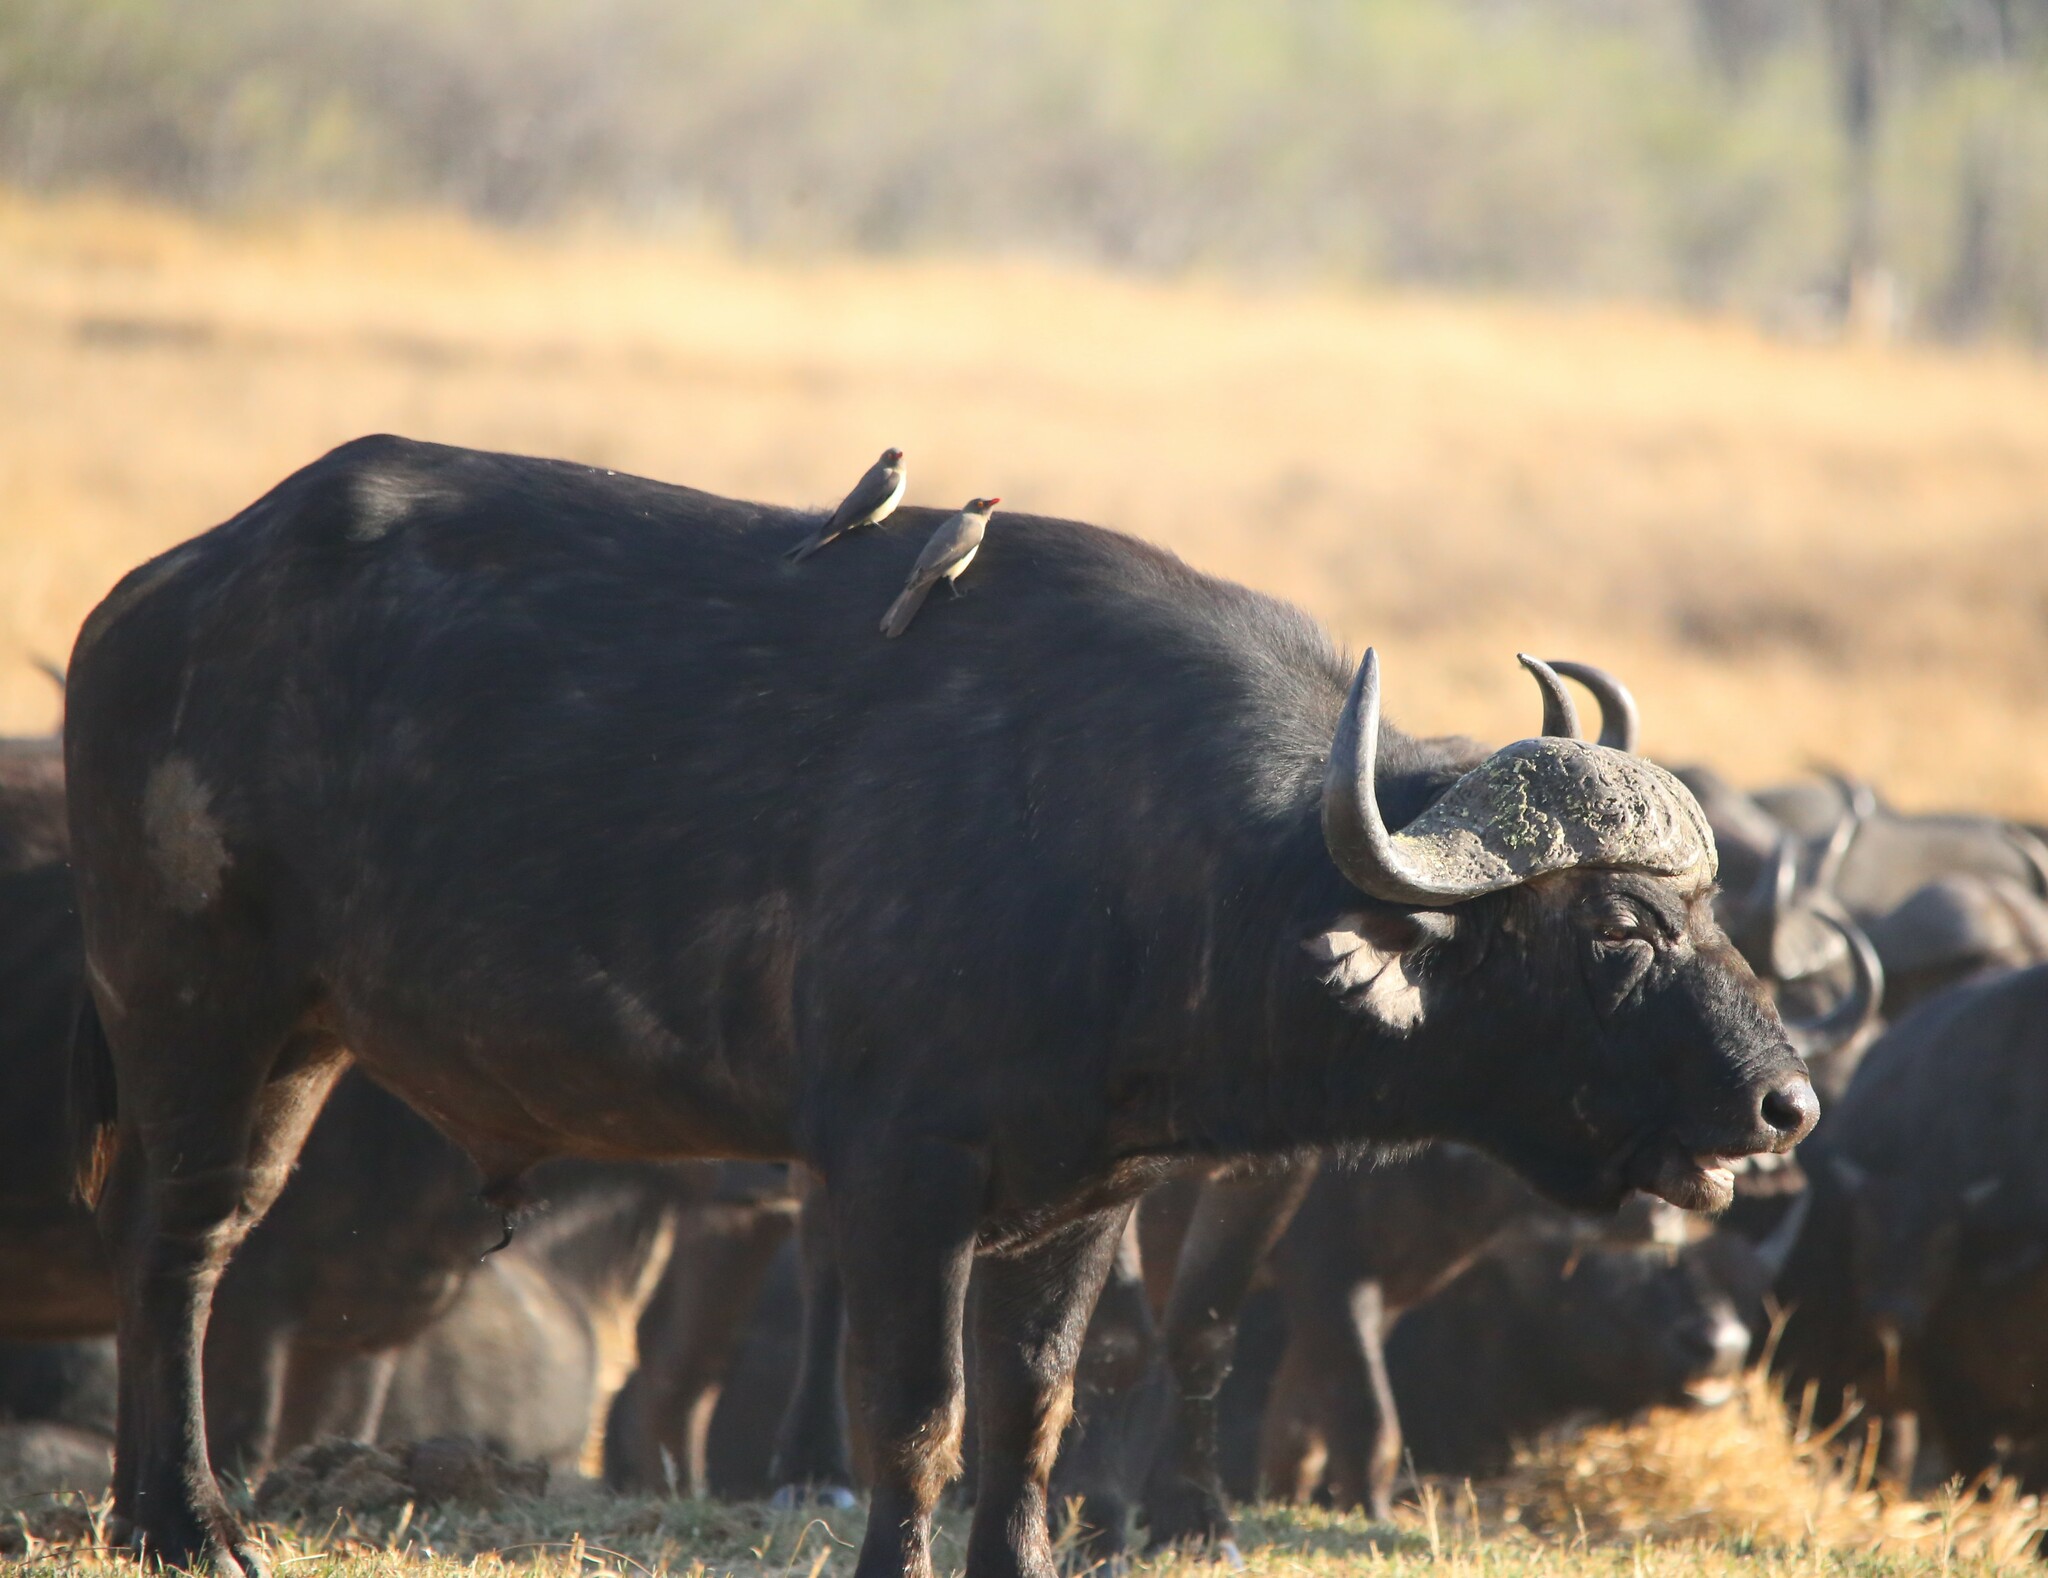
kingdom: Animalia
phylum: Chordata
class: Mammalia
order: Artiodactyla
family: Bovidae
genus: Syncerus
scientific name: Syncerus caffer
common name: African buffalo
